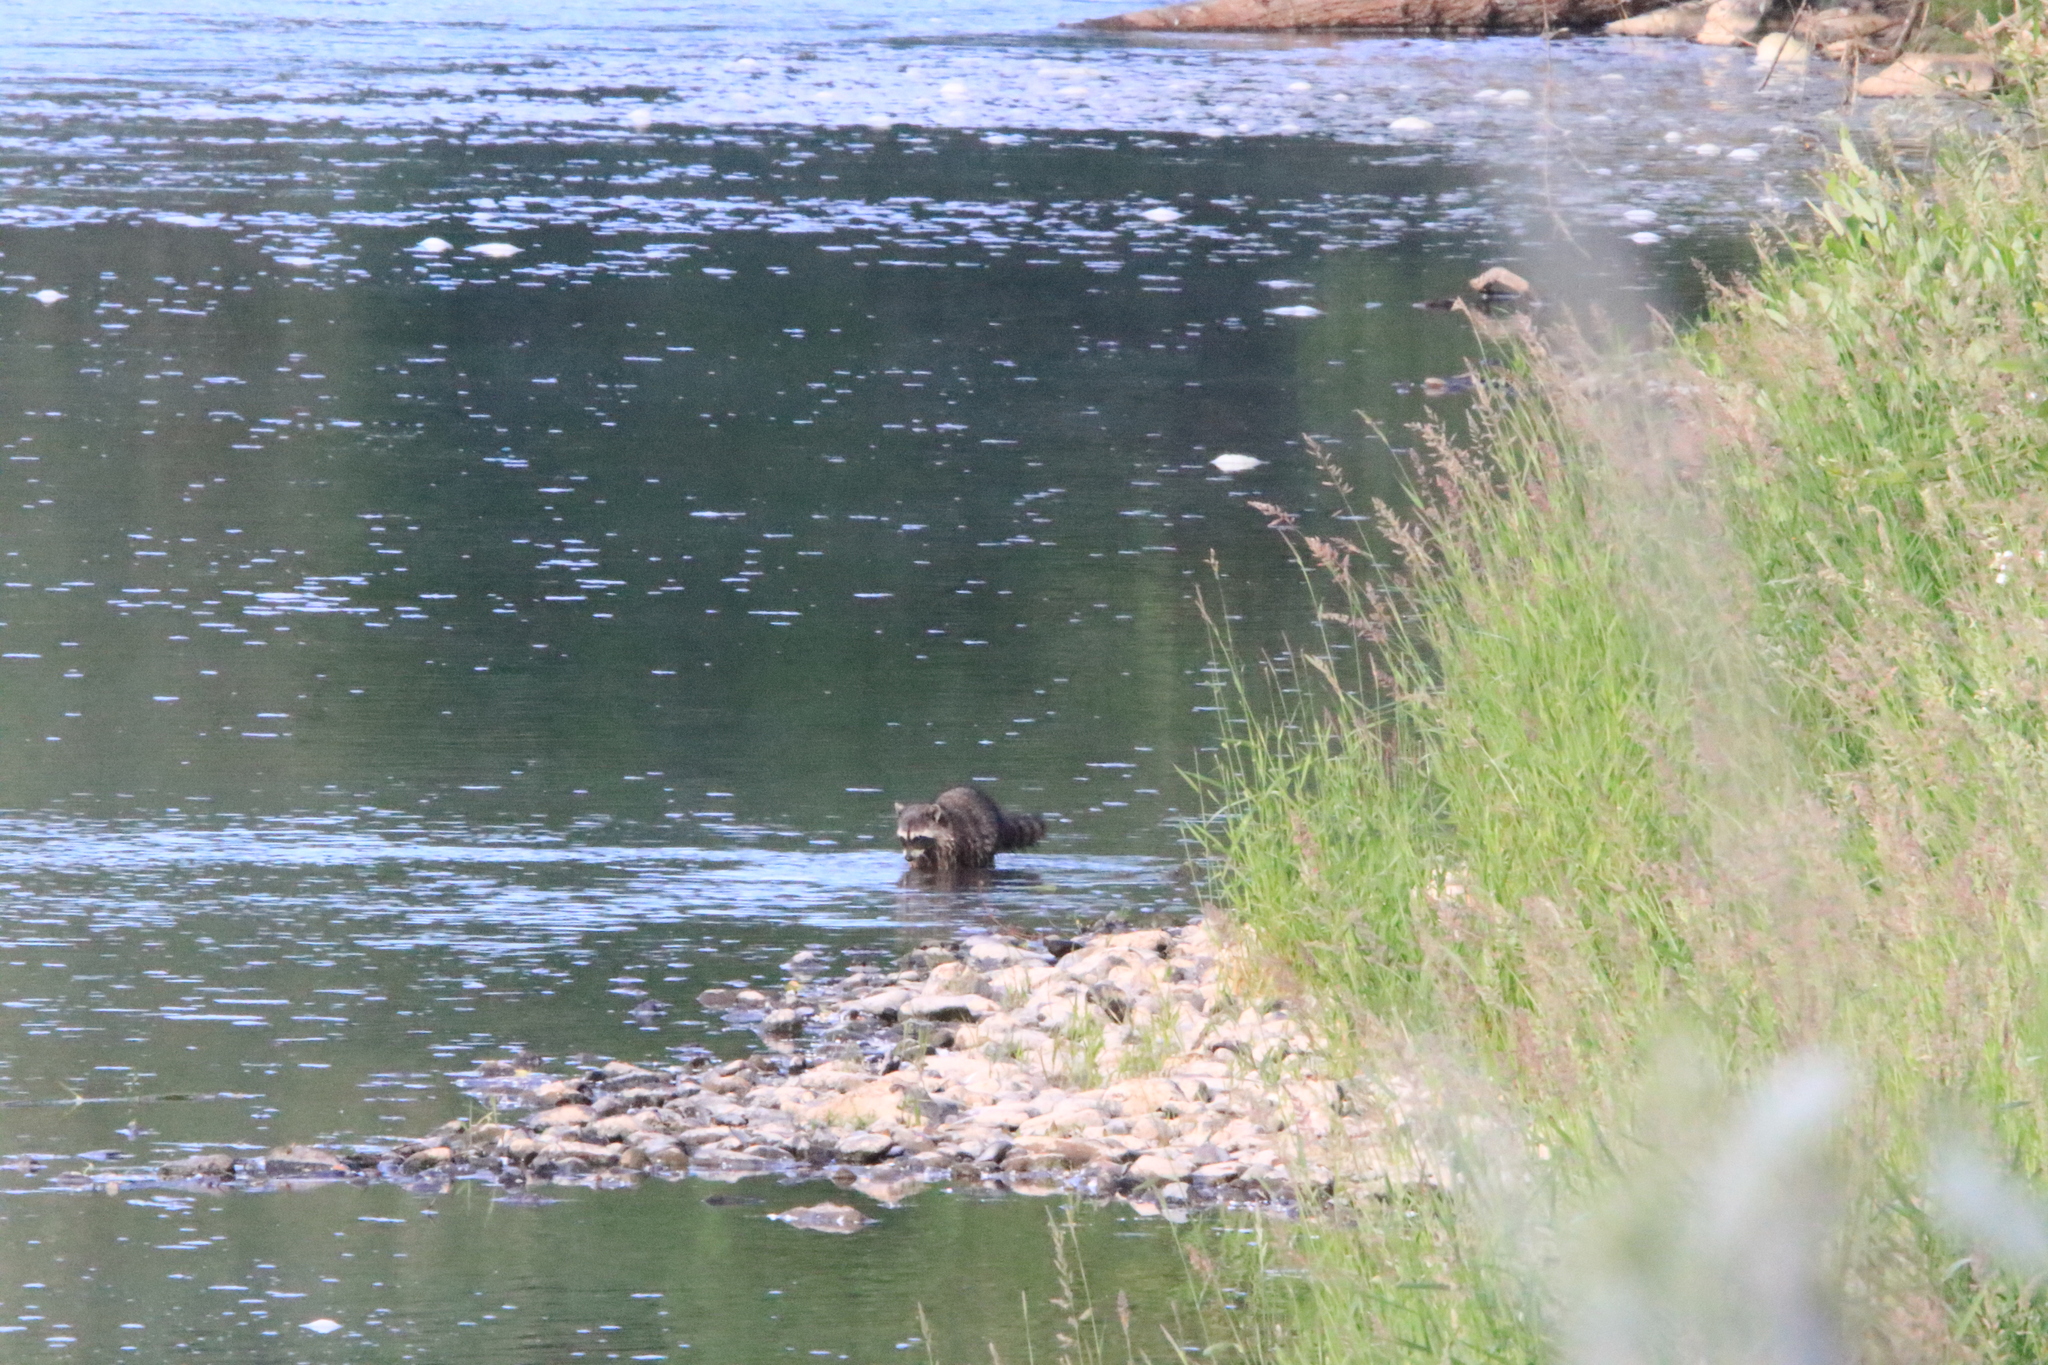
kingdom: Animalia
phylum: Chordata
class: Mammalia
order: Carnivora
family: Procyonidae
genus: Procyon
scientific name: Procyon lotor
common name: Raccoon
